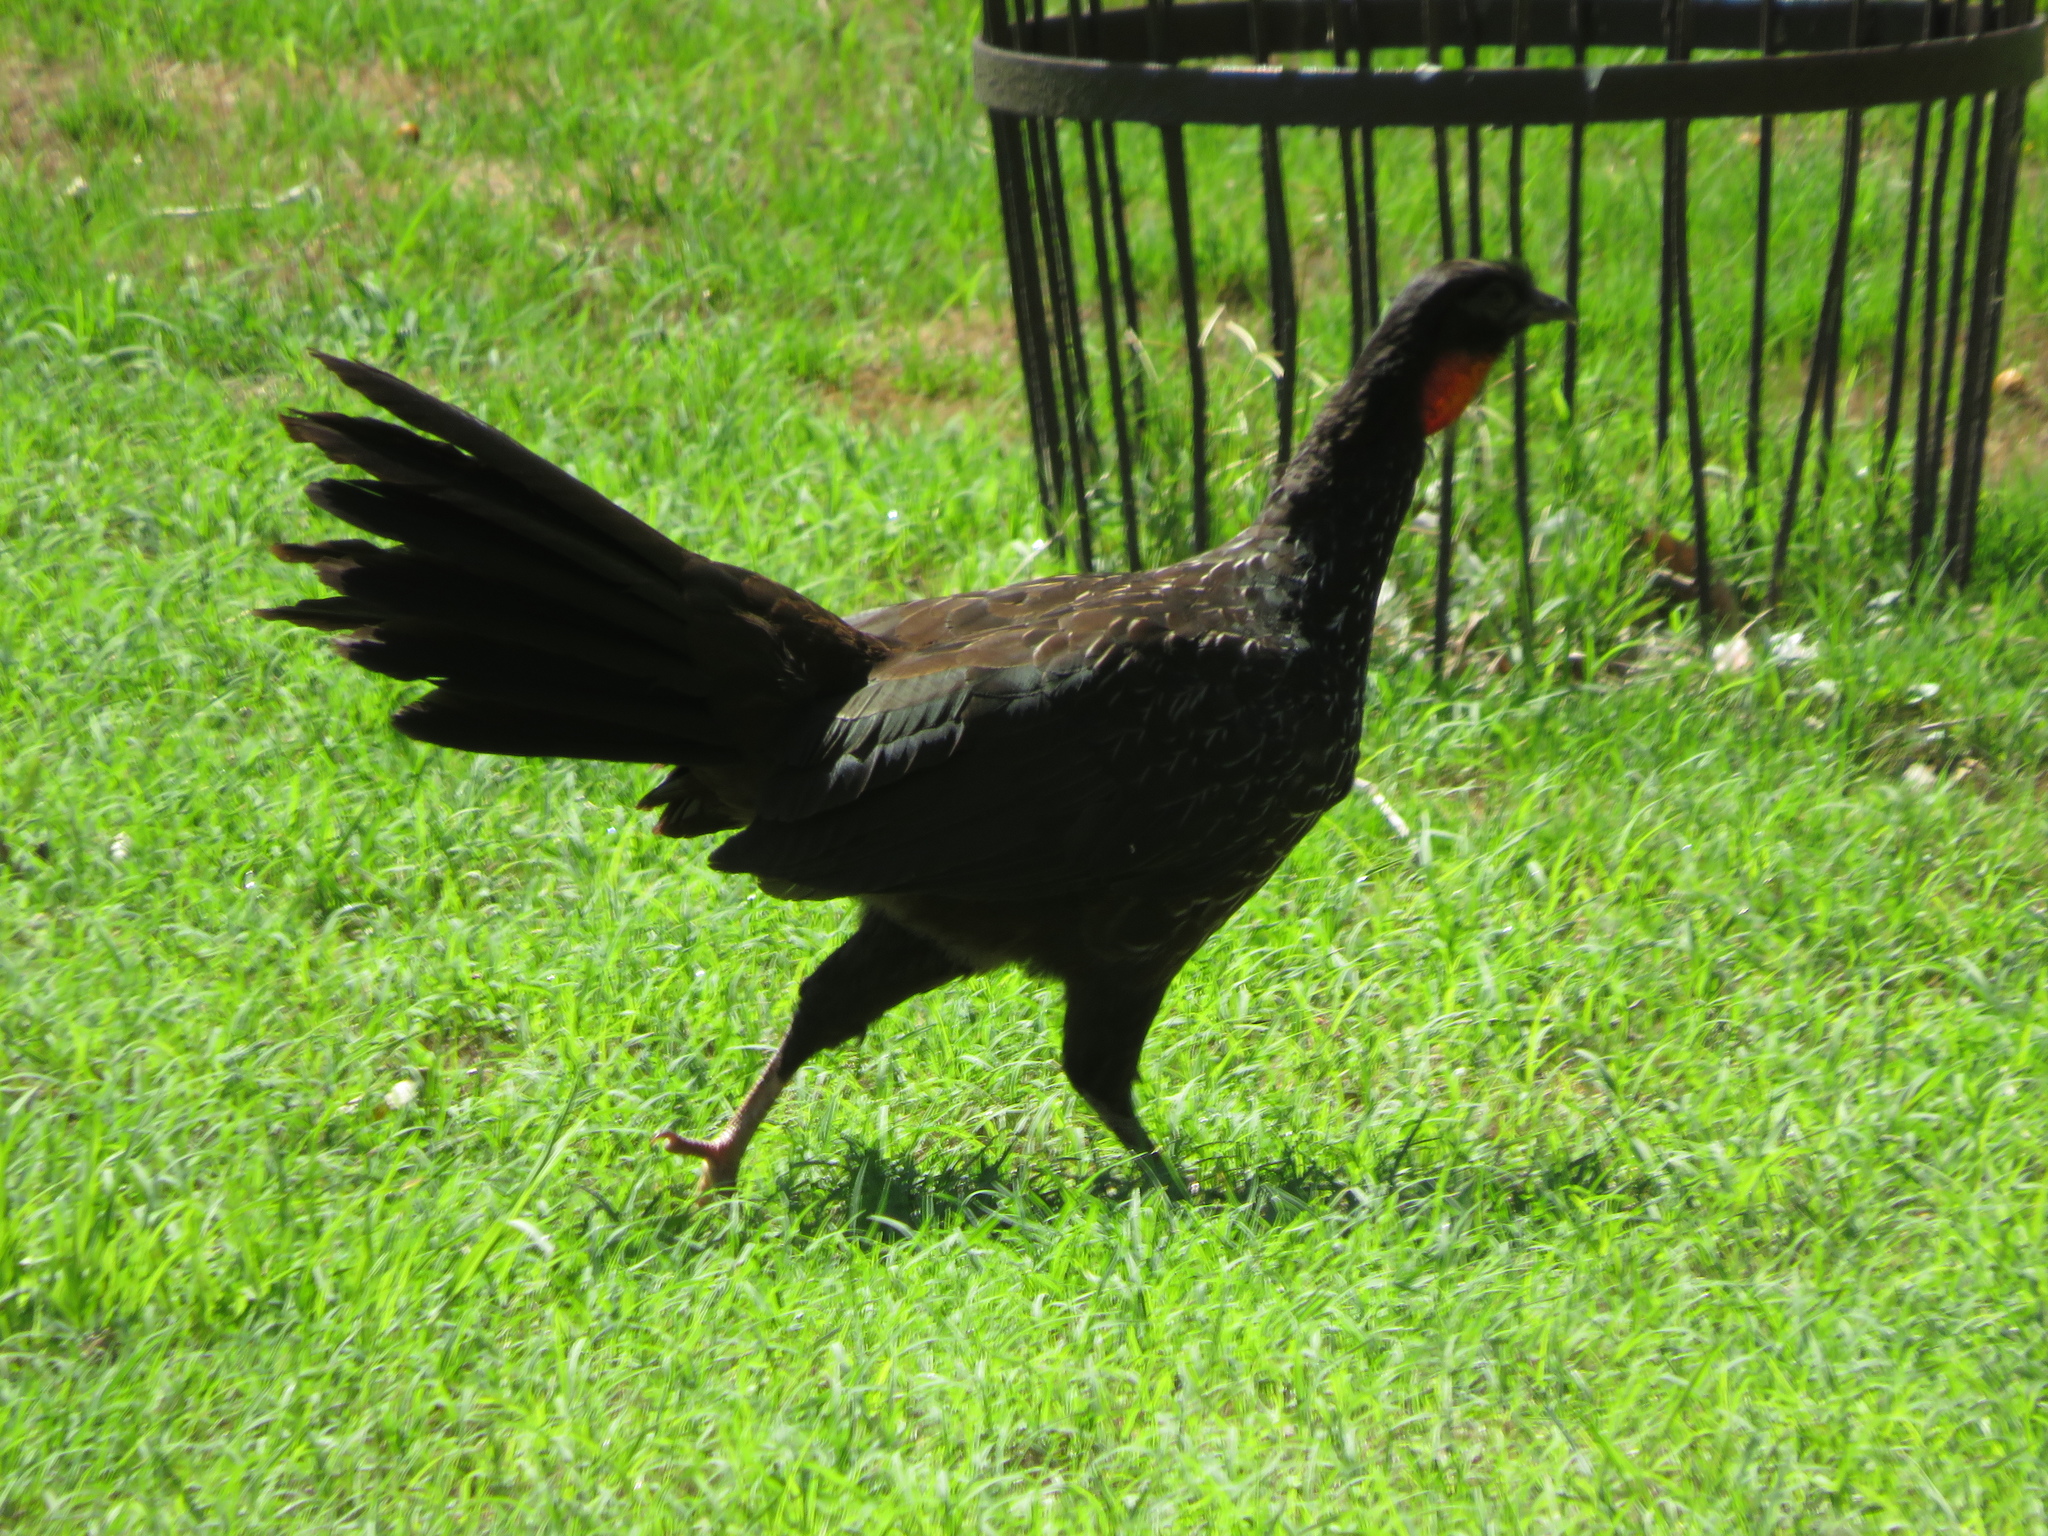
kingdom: Animalia
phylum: Chordata
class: Aves
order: Galliformes
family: Cracidae
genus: Penelope
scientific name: Penelope obscura
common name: Dusky-legged guan
